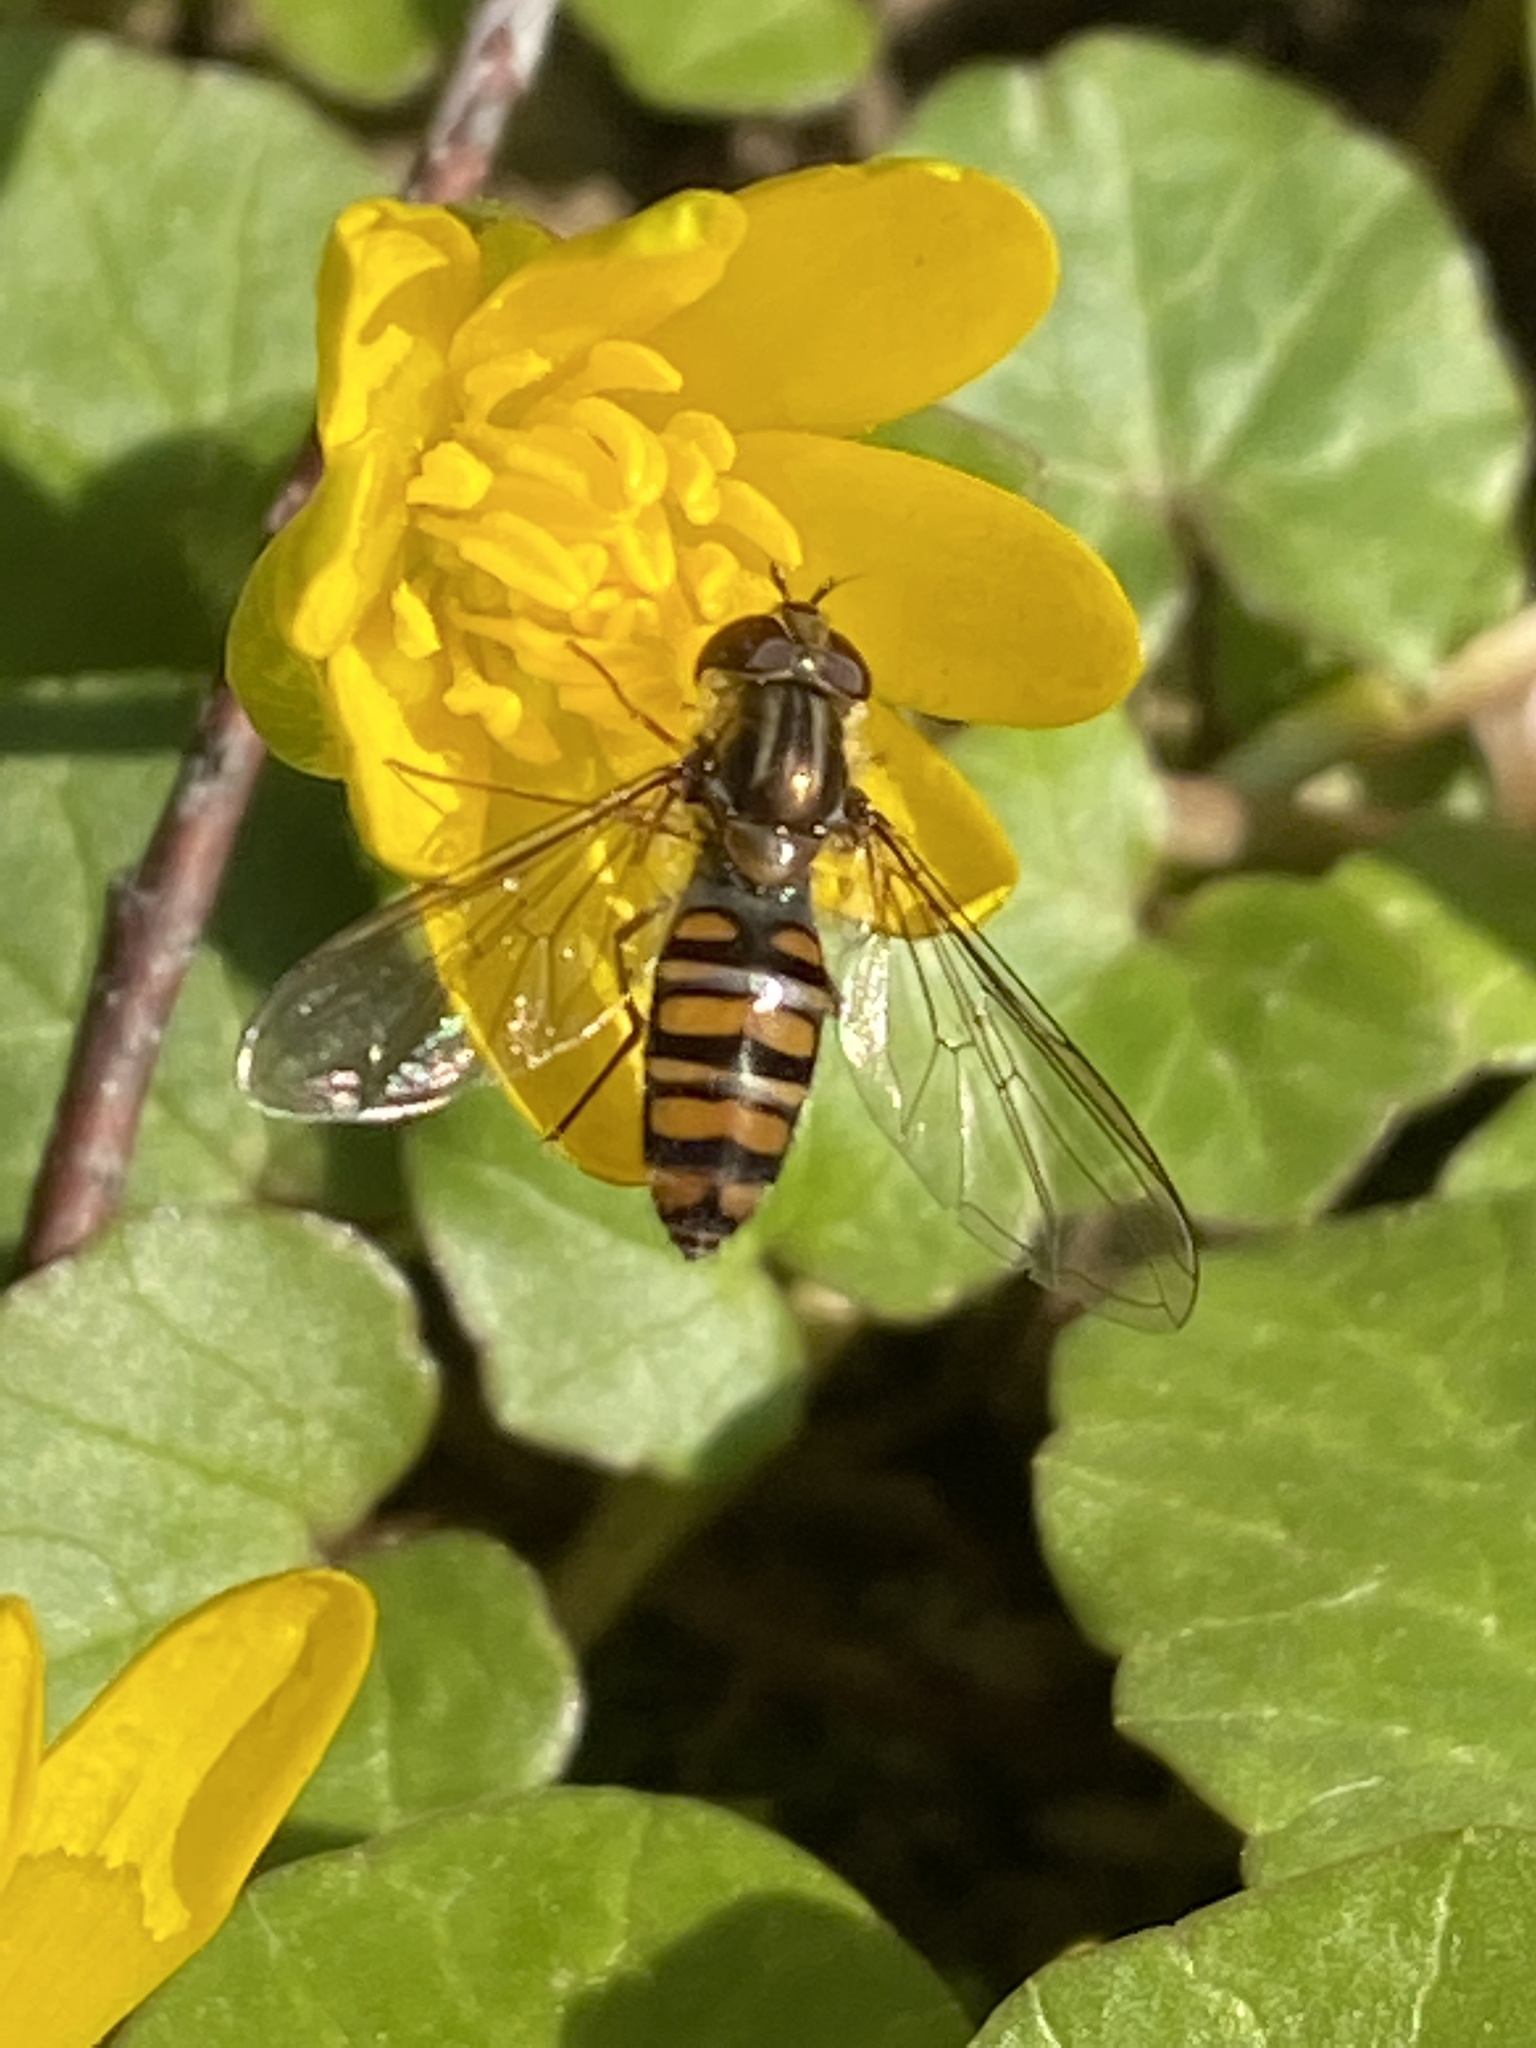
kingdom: Animalia
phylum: Arthropoda
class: Insecta
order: Diptera
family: Syrphidae
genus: Episyrphus
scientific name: Episyrphus balteatus
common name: Marmalade hoverfly
